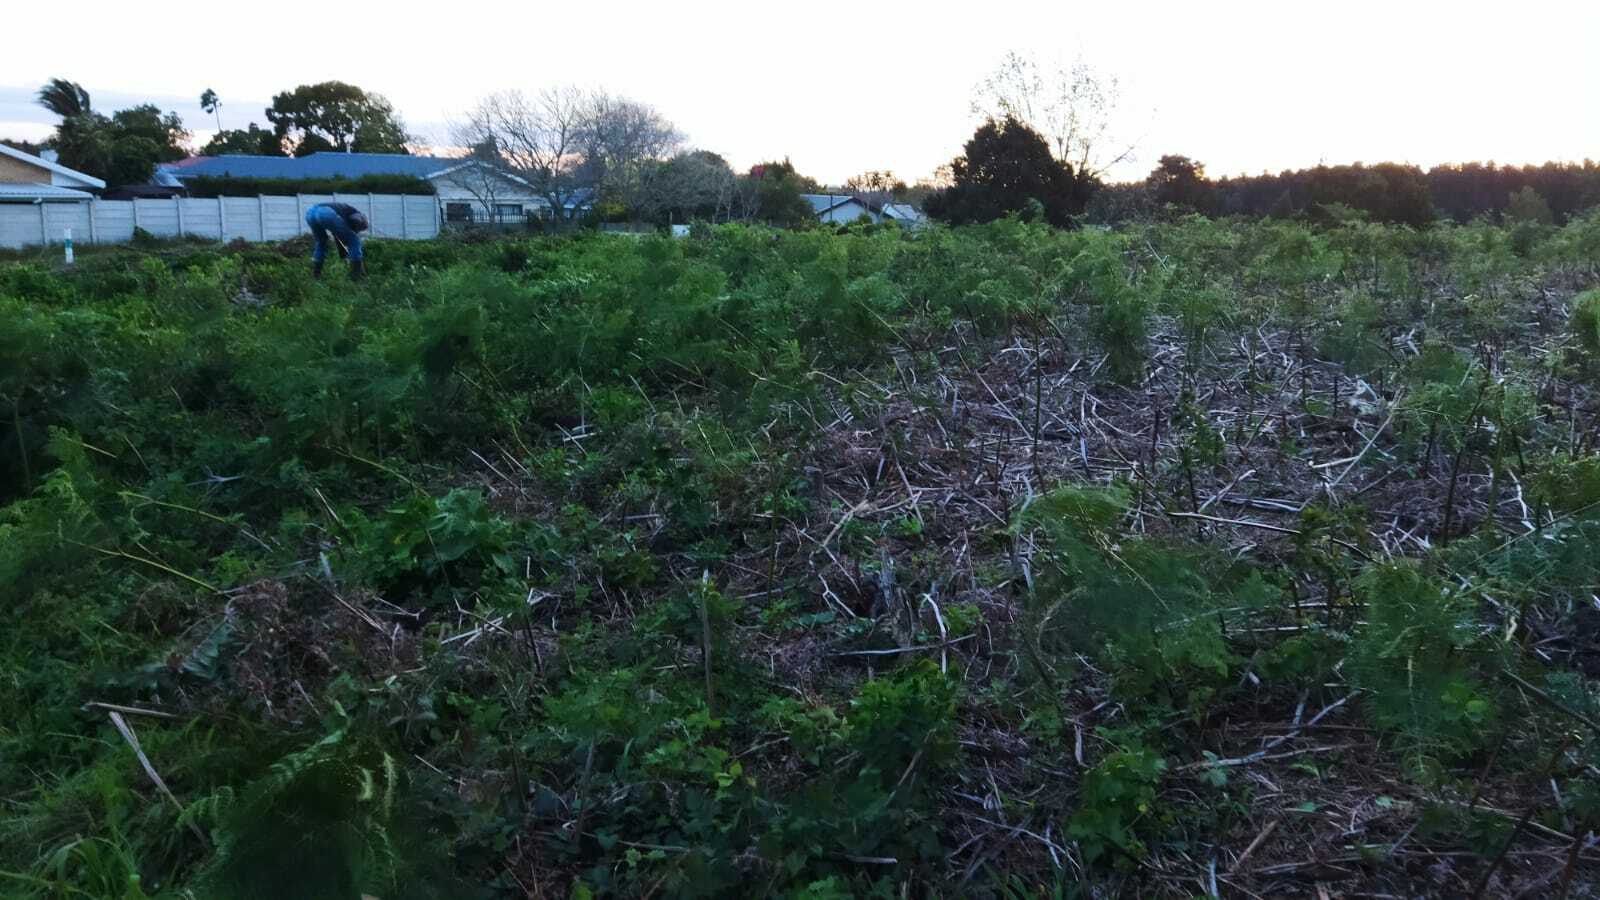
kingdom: Plantae
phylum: Tracheophyta
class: Magnoliopsida
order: Solanales
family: Solanaceae
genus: Solanum
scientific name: Solanum mauritianum
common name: Earleaf nightshade
